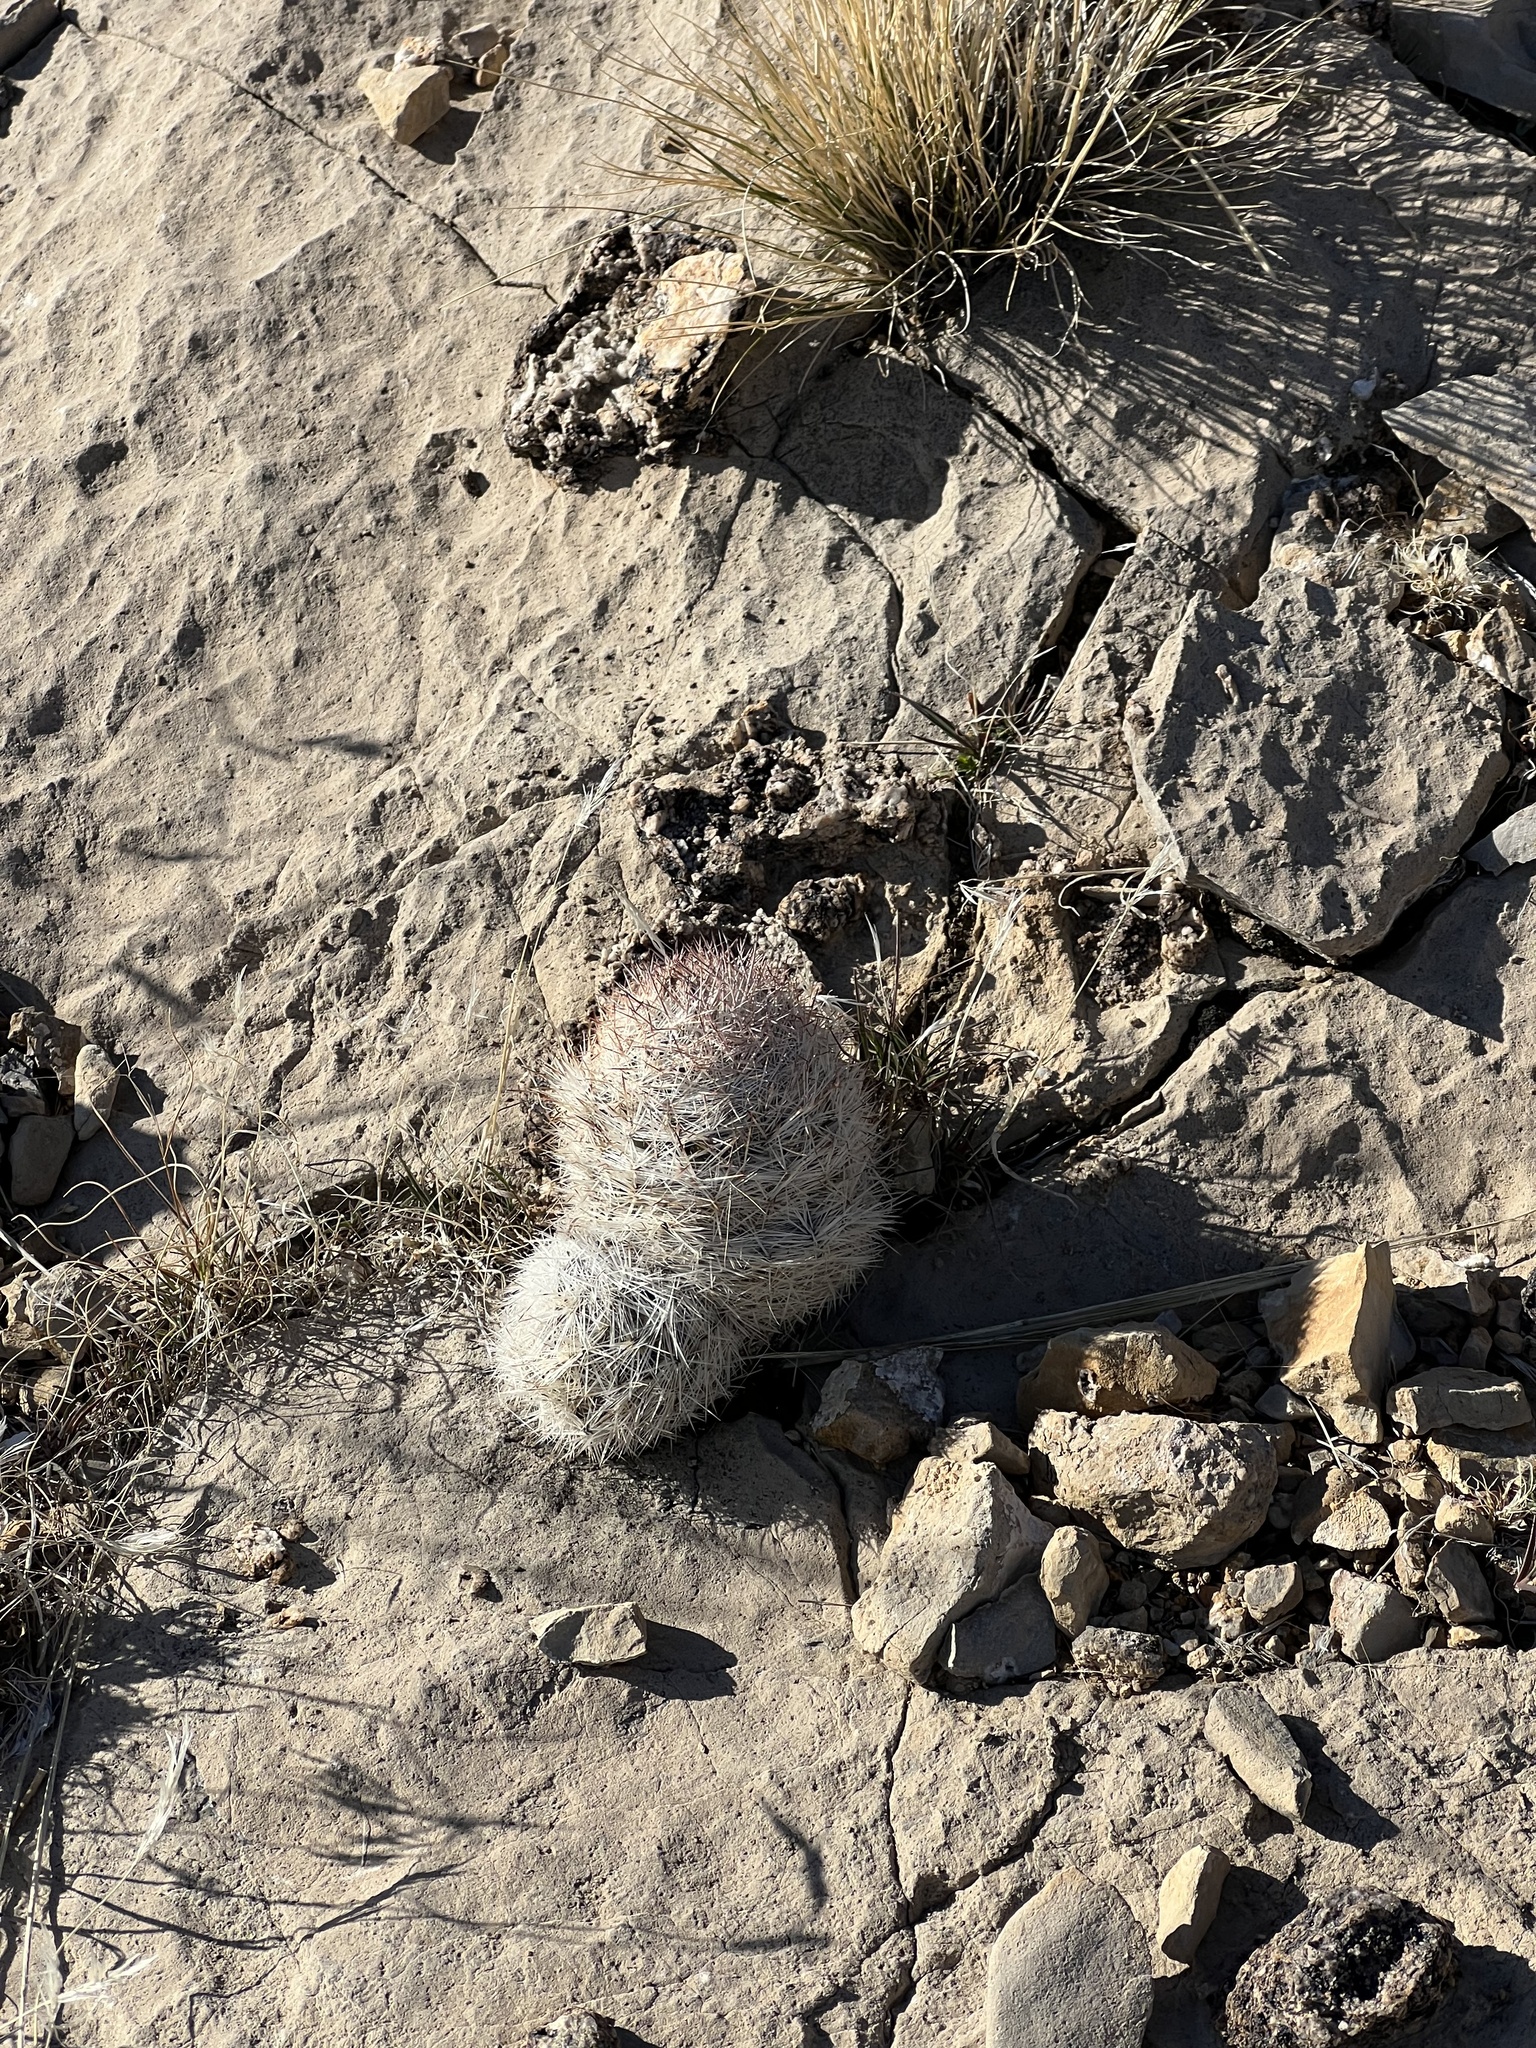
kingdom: Plantae
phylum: Tracheophyta
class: Magnoliopsida
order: Caryophyllales
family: Cactaceae
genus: Pelecyphora
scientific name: Pelecyphora dasyacantha
